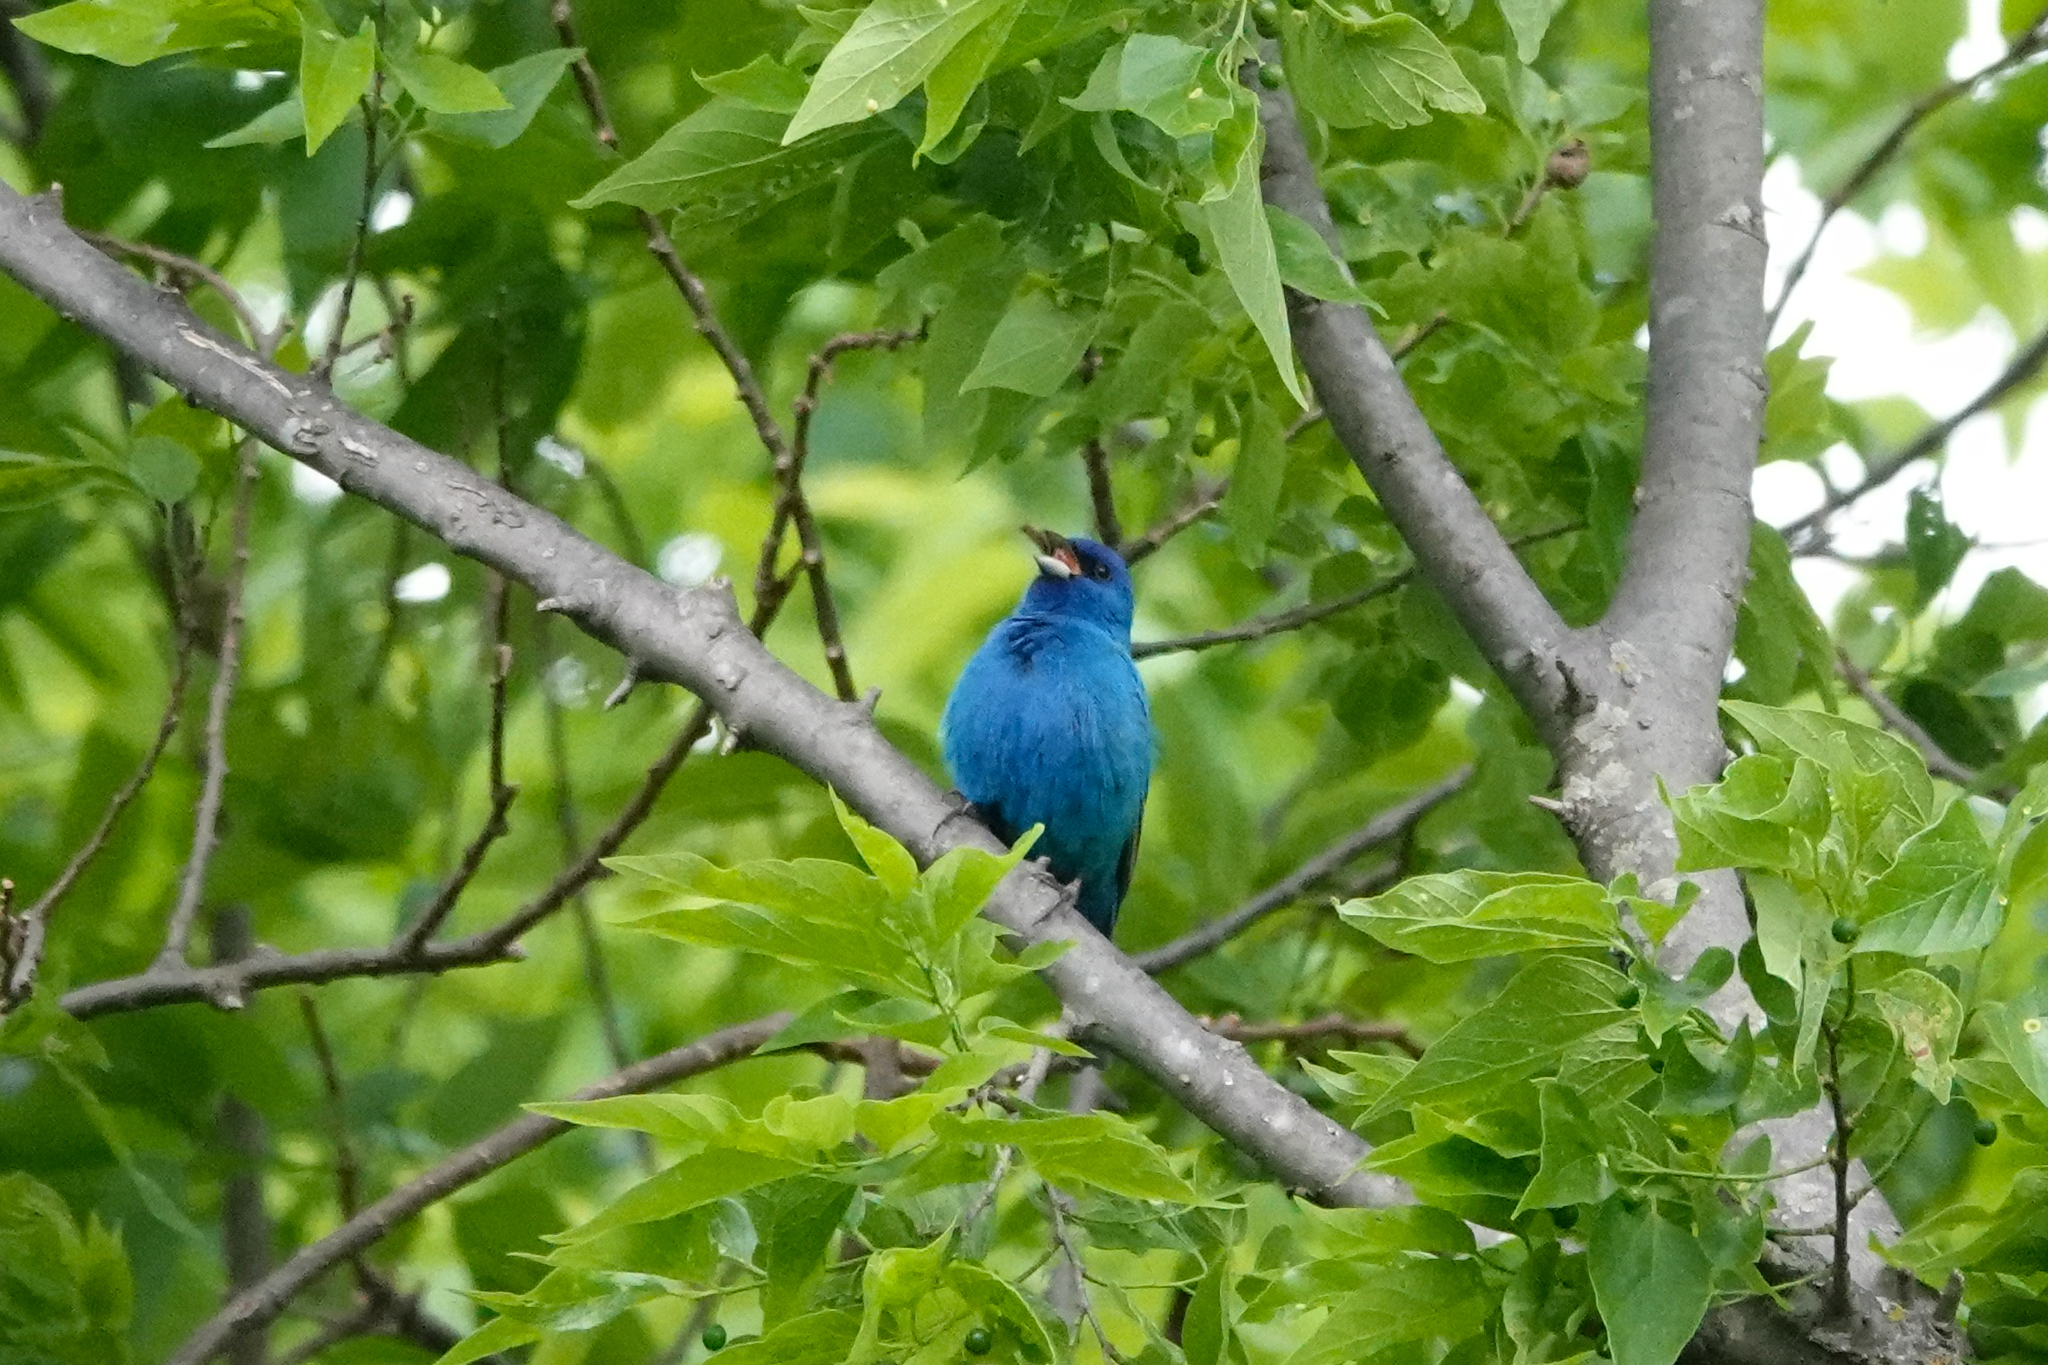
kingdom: Animalia
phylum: Chordata
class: Aves
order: Passeriformes
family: Cardinalidae
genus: Passerina
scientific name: Passerina cyanea
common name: Indigo bunting
